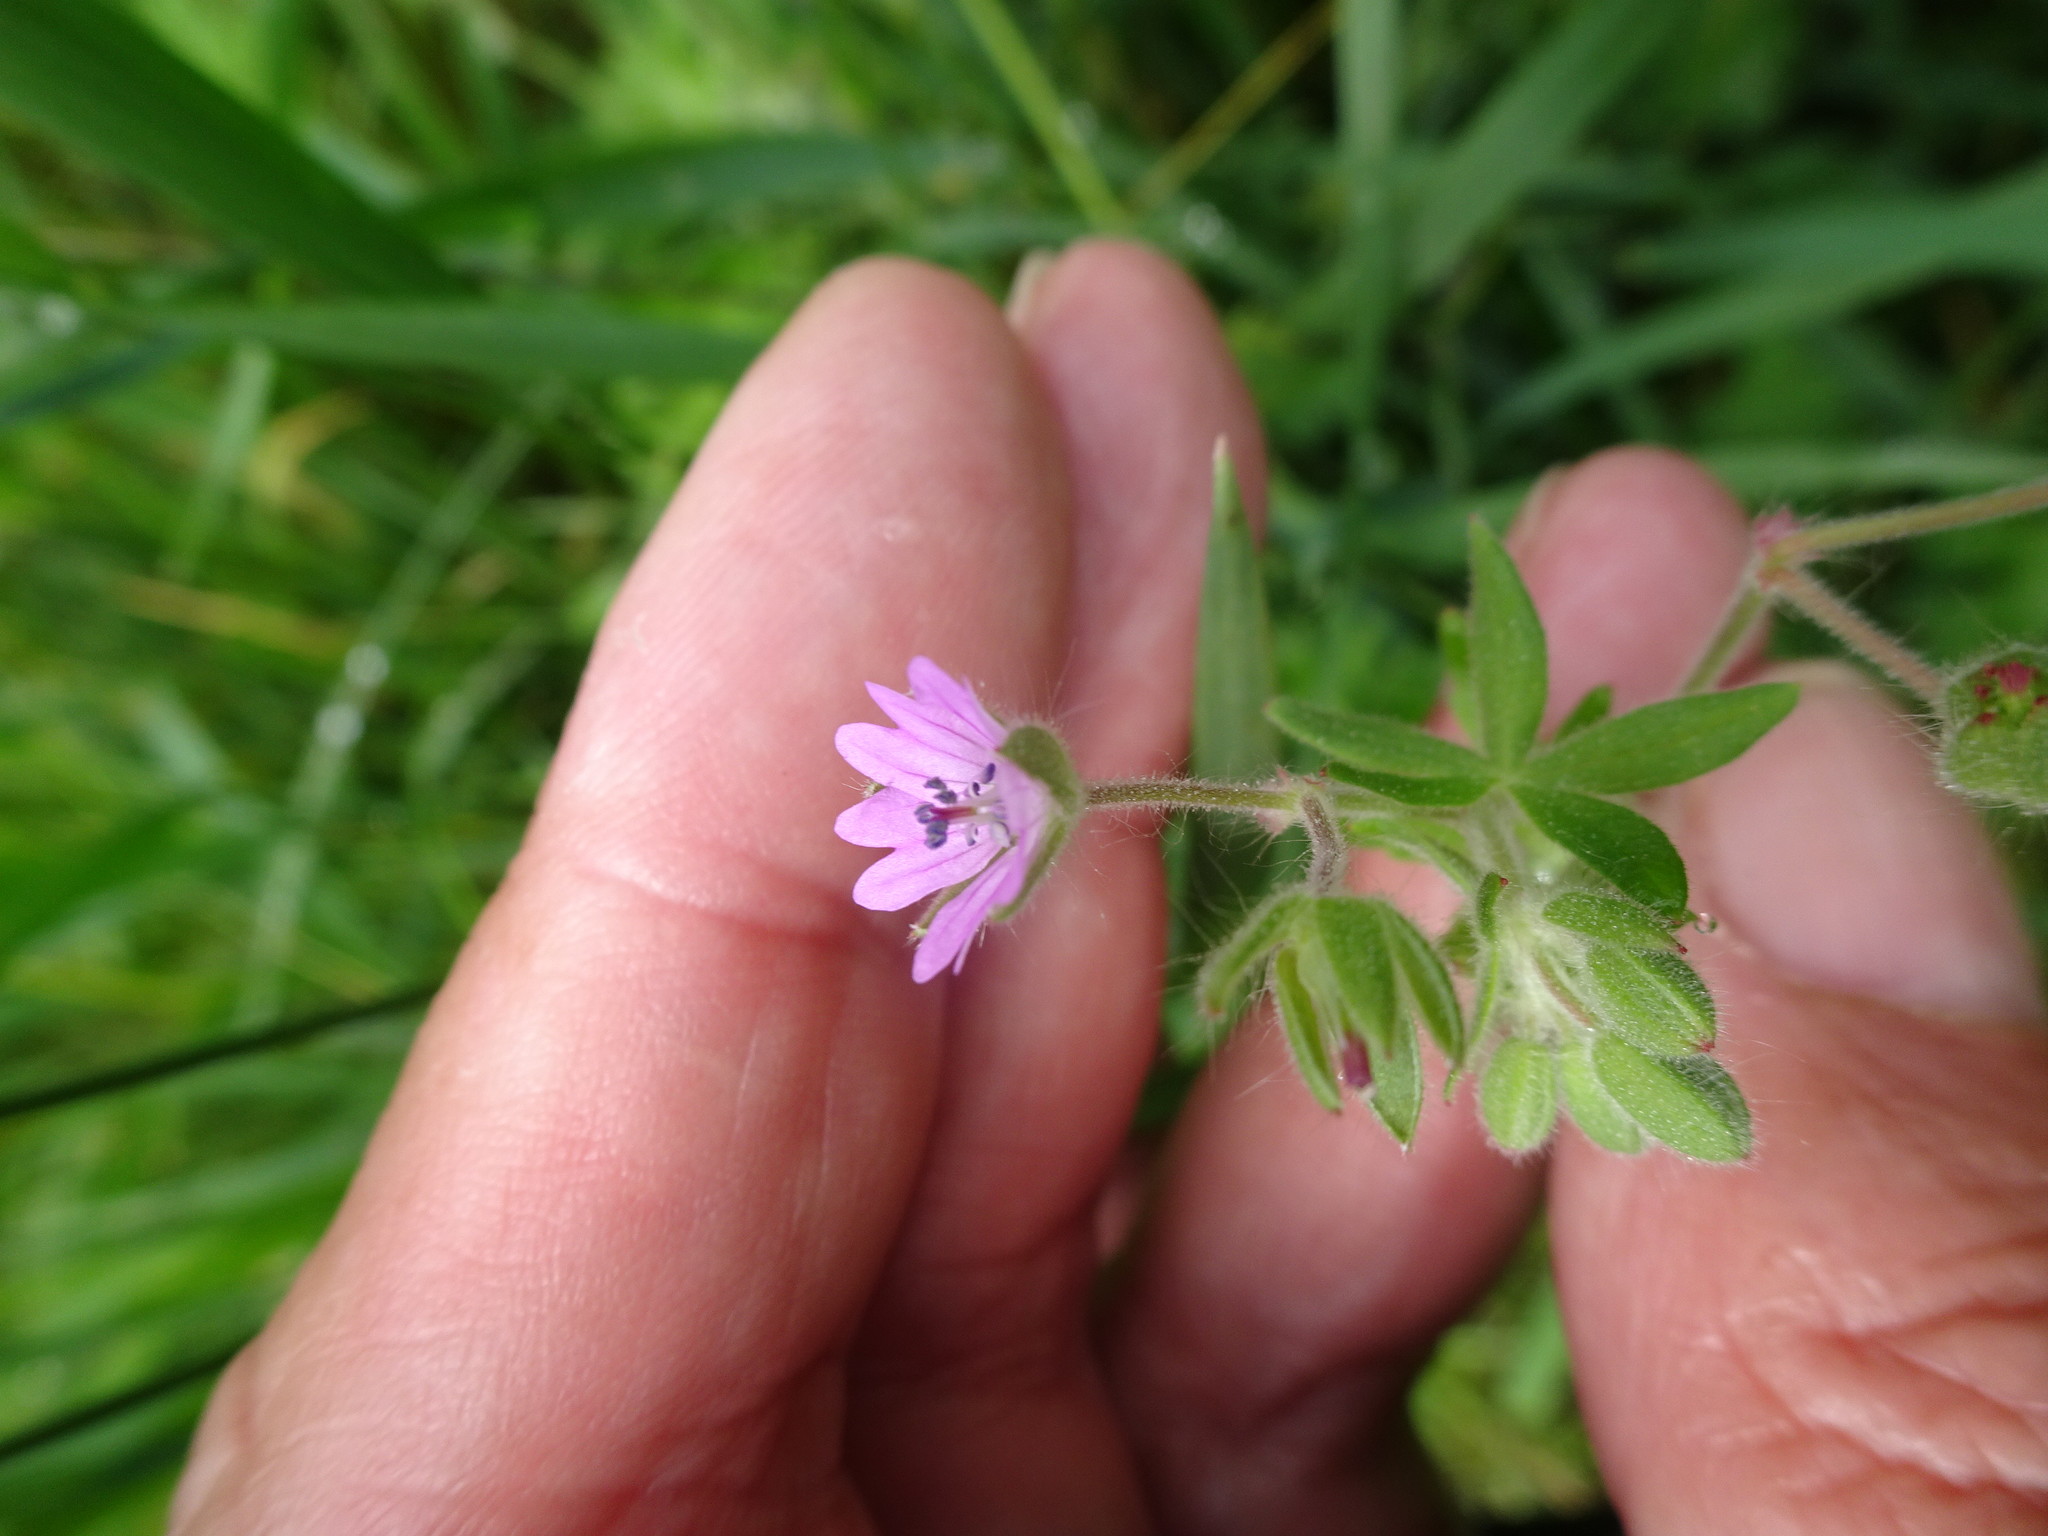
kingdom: Plantae
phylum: Tracheophyta
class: Magnoliopsida
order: Geraniales
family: Geraniaceae
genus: Geranium
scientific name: Geranium molle
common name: Dove's-foot crane's-bill
